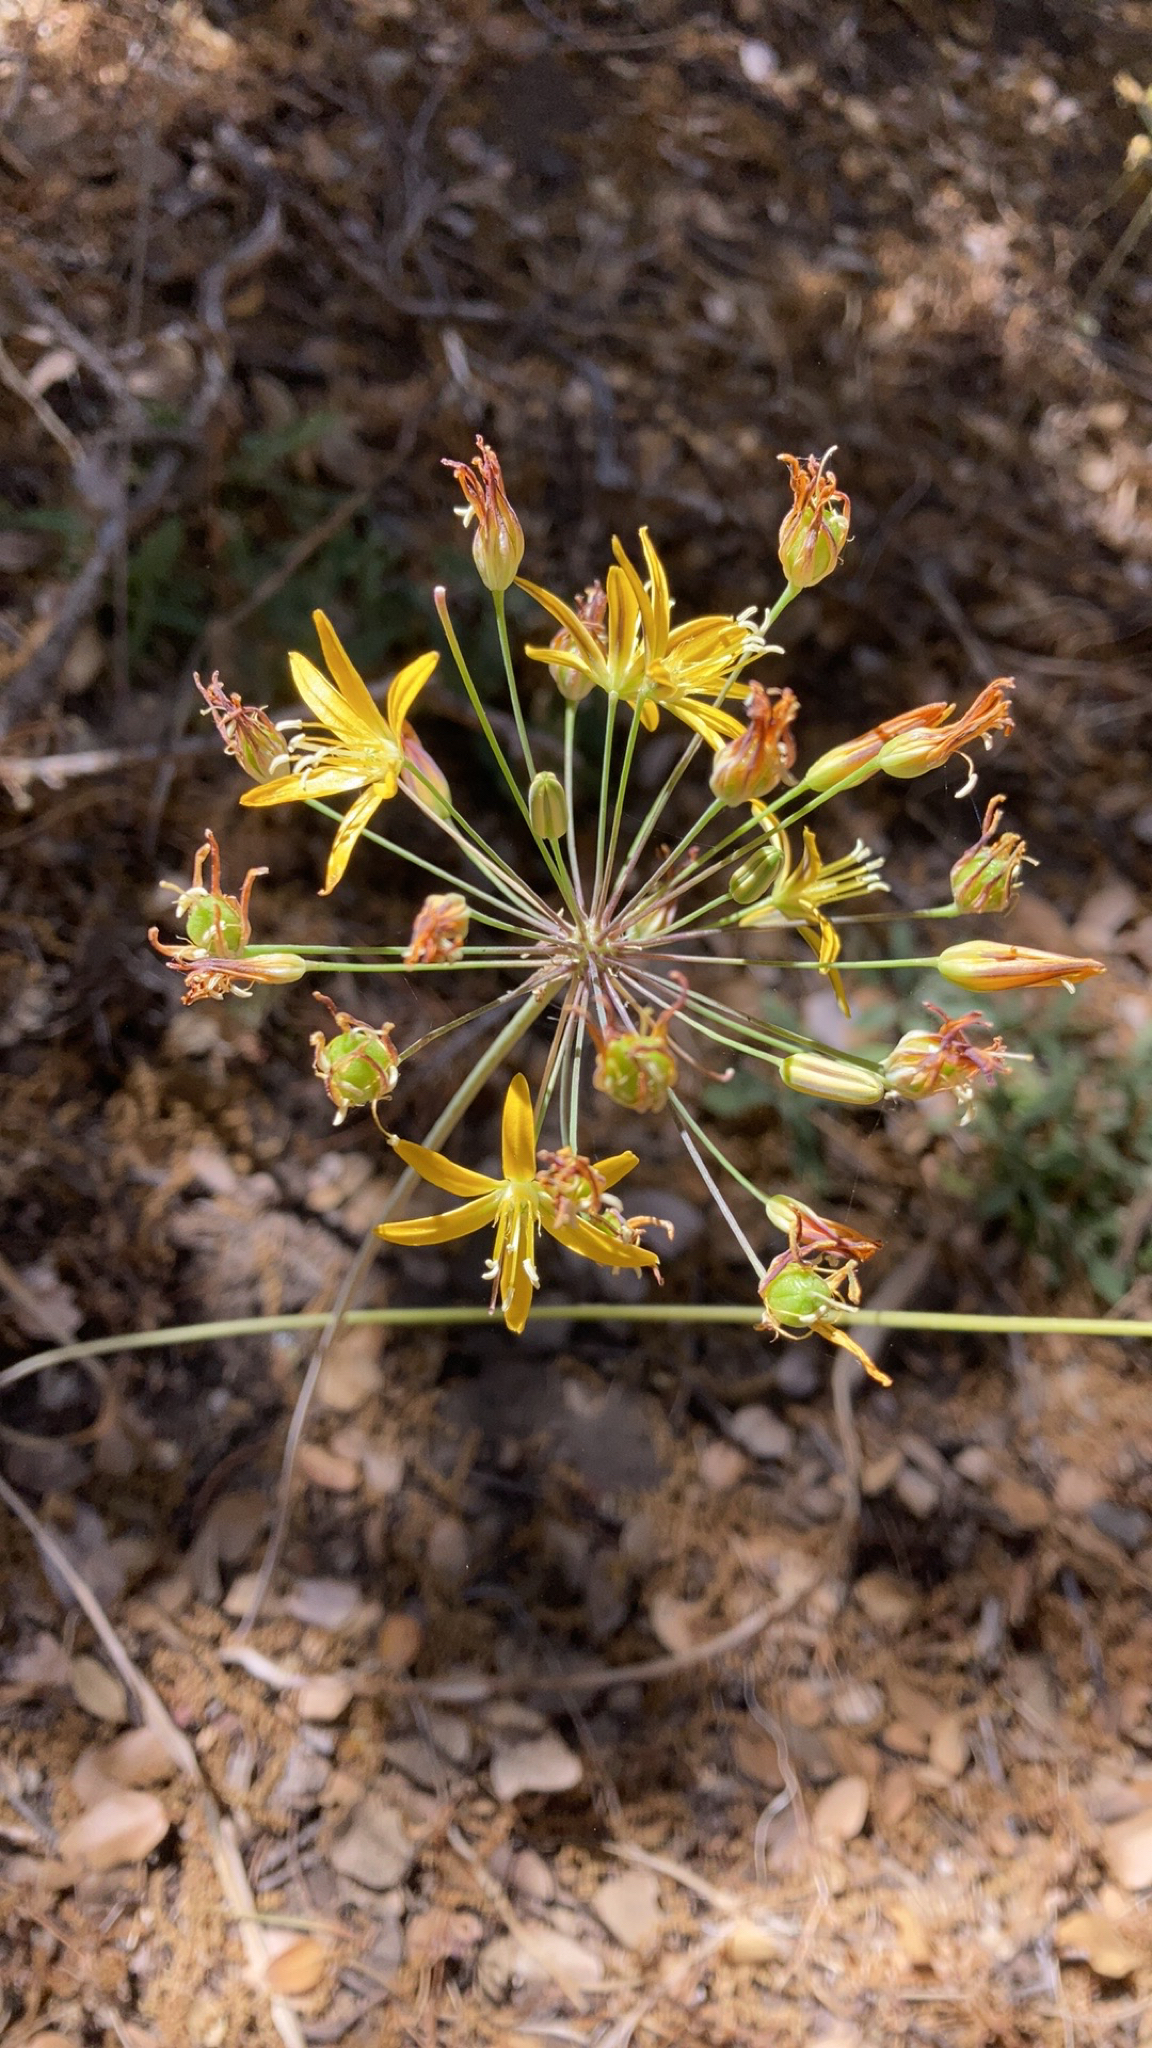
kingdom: Plantae
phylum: Tracheophyta
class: Liliopsida
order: Asparagales
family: Asparagaceae
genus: Bloomeria
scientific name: Bloomeria crocea
